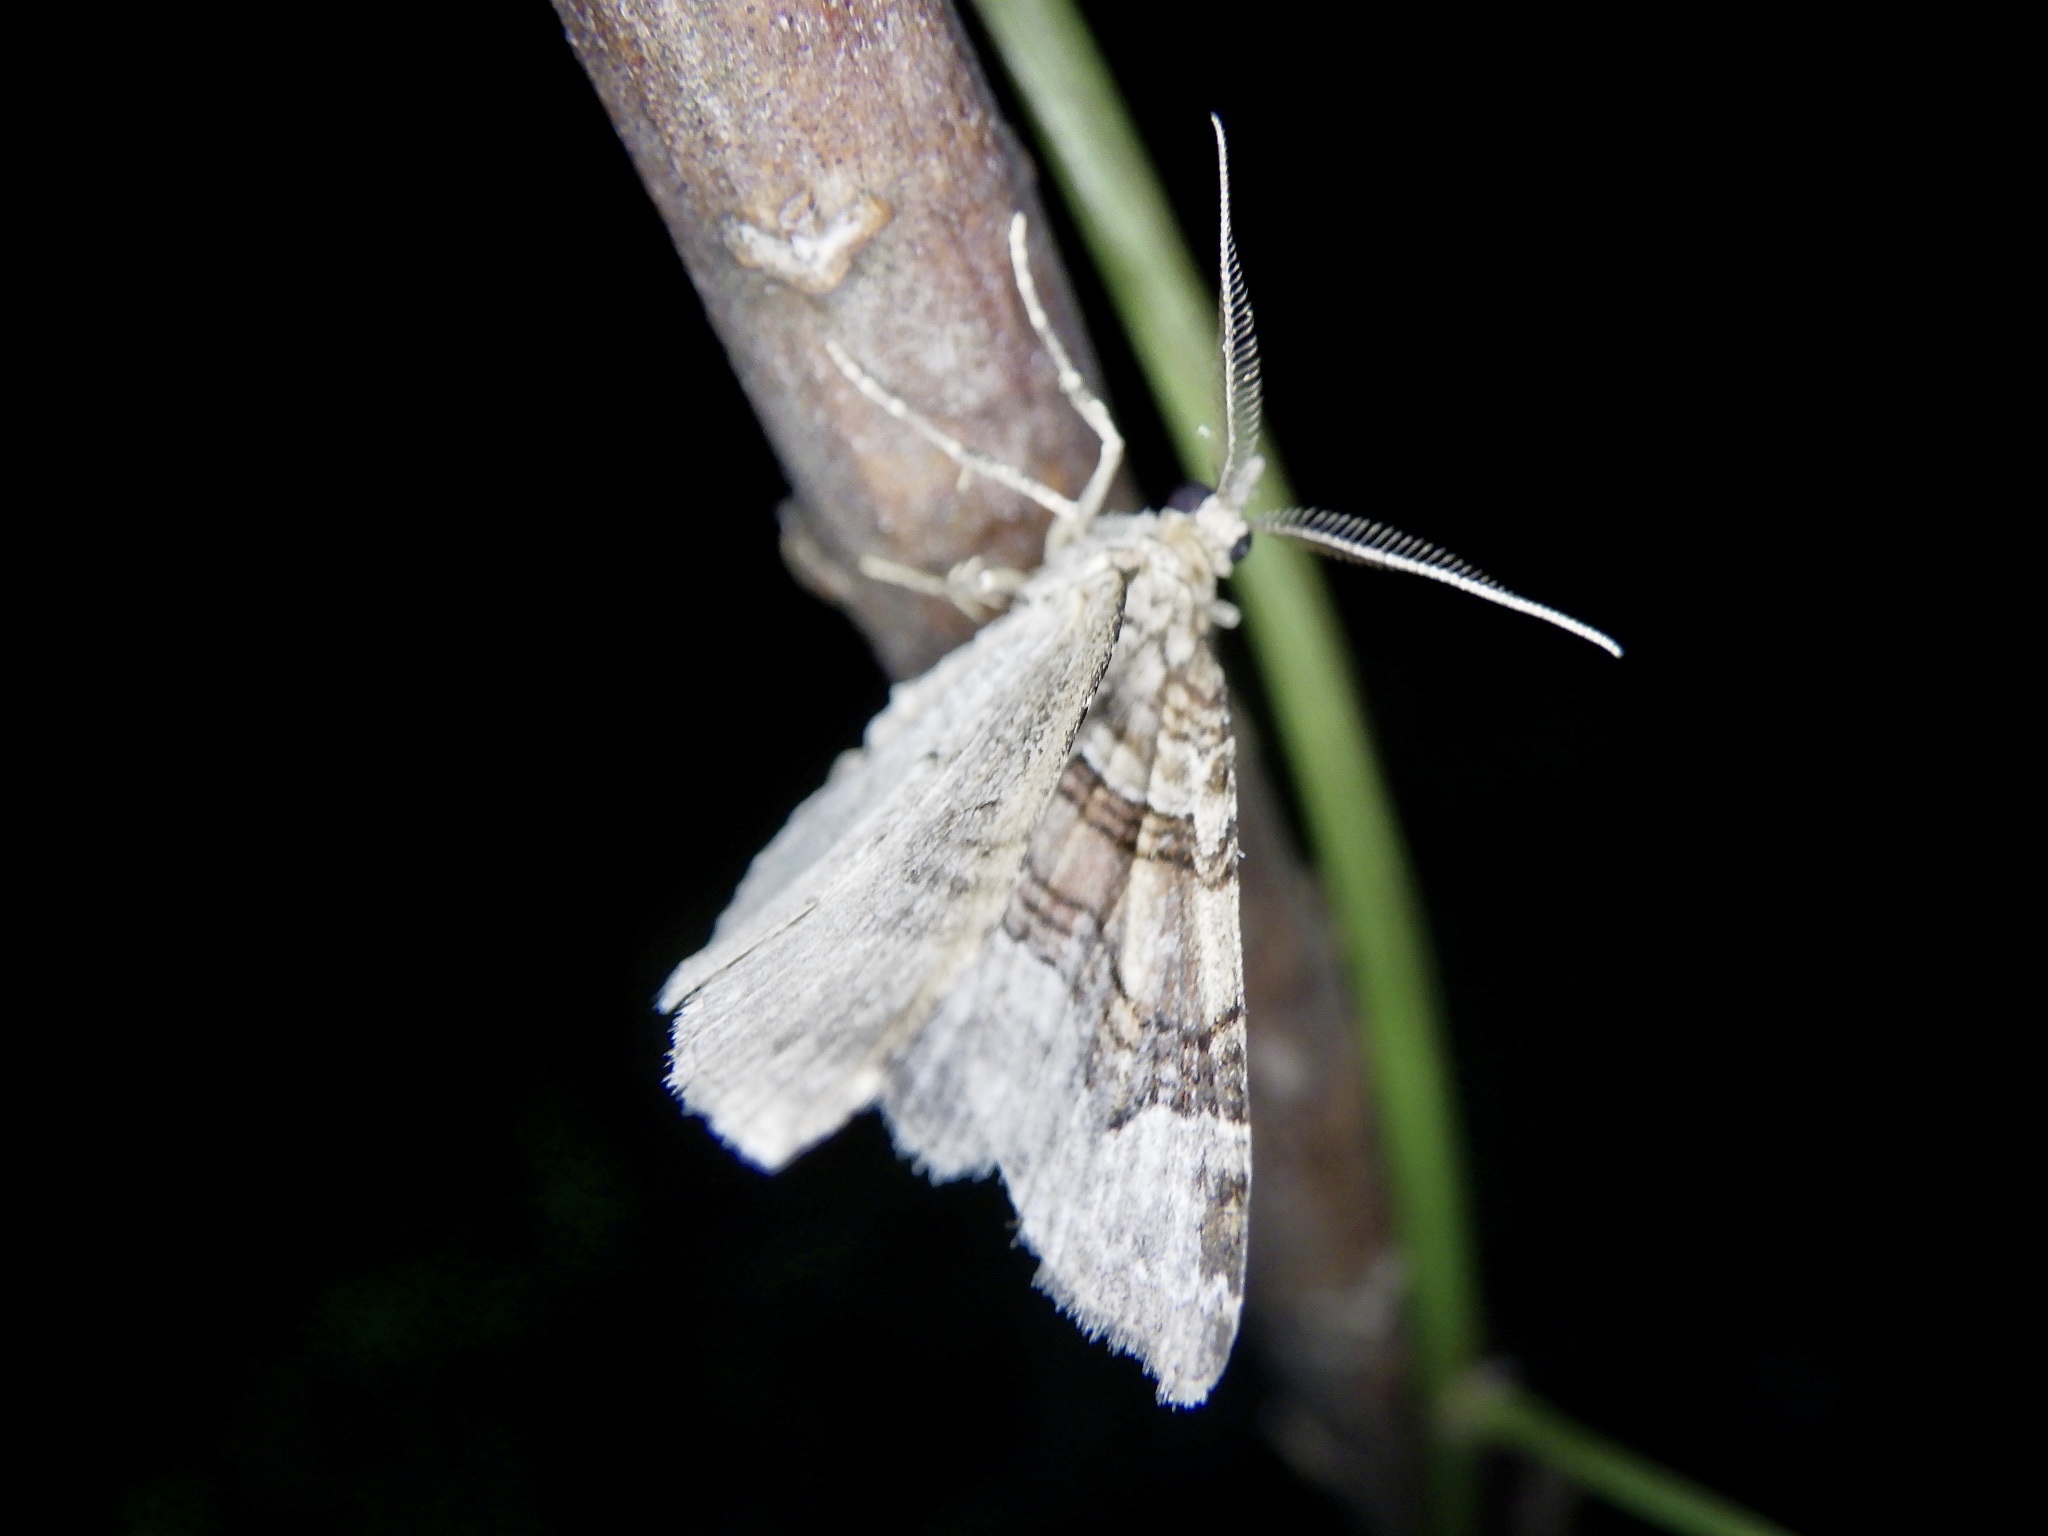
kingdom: Animalia
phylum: Arthropoda
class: Insecta
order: Lepidoptera
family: Geometridae
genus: Xanthorhoe
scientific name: Xanthorhoe hortensiaria
